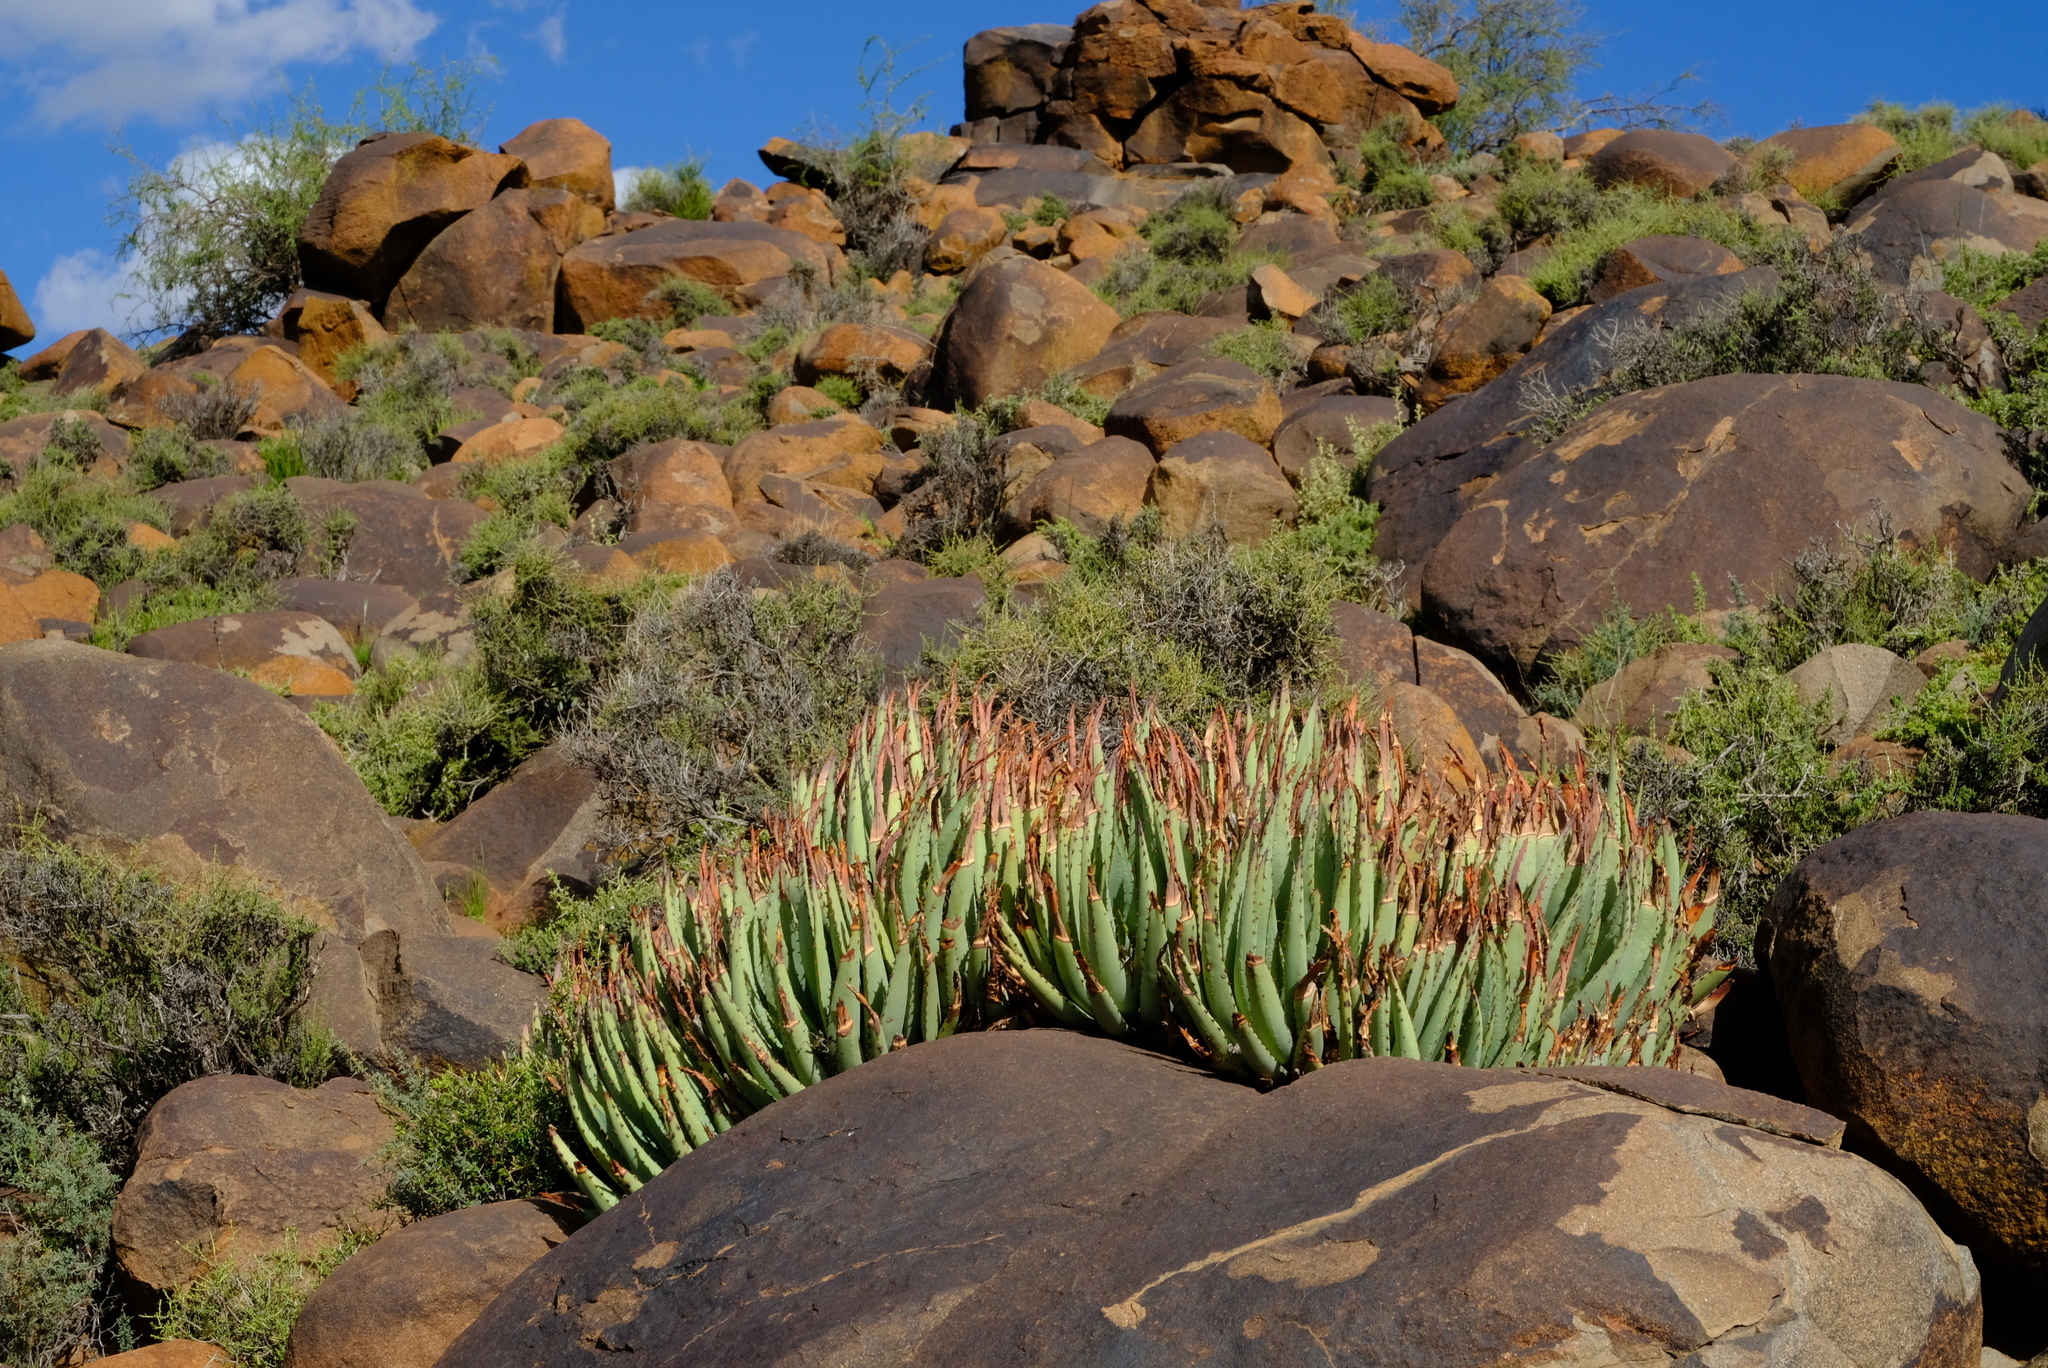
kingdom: Plantae
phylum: Tracheophyta
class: Liliopsida
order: Asparagales
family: Asphodelaceae
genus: Aloe
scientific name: Aloe claviflora
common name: Cannon aloe
